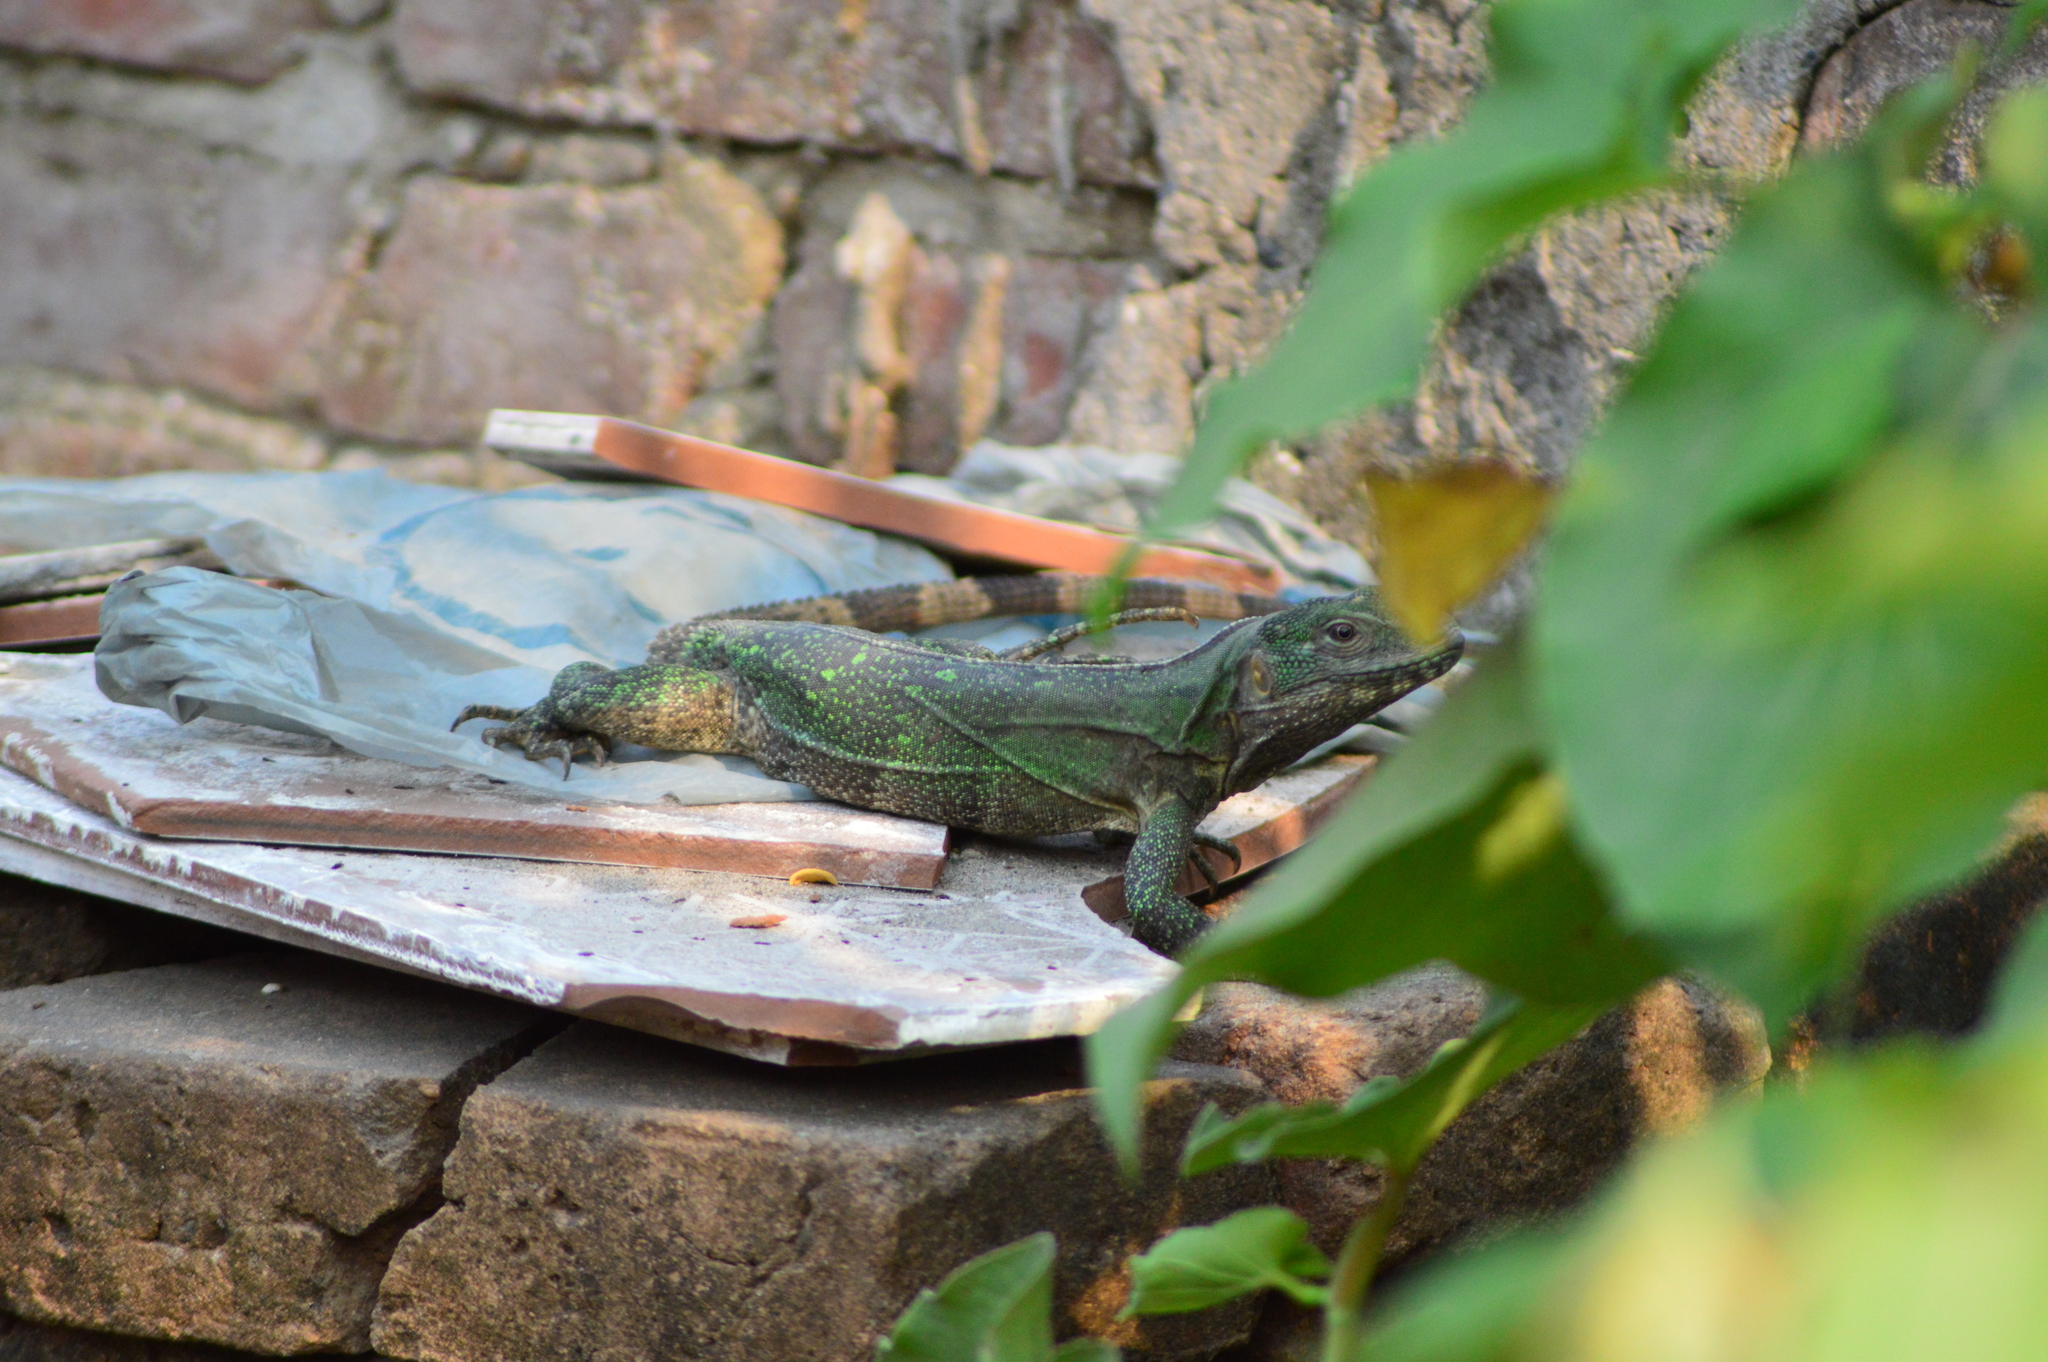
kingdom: Animalia
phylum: Chordata
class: Squamata
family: Iguanidae
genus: Ctenosaura
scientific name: Ctenosaura acanthura
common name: Northeastern spinytail iguana
